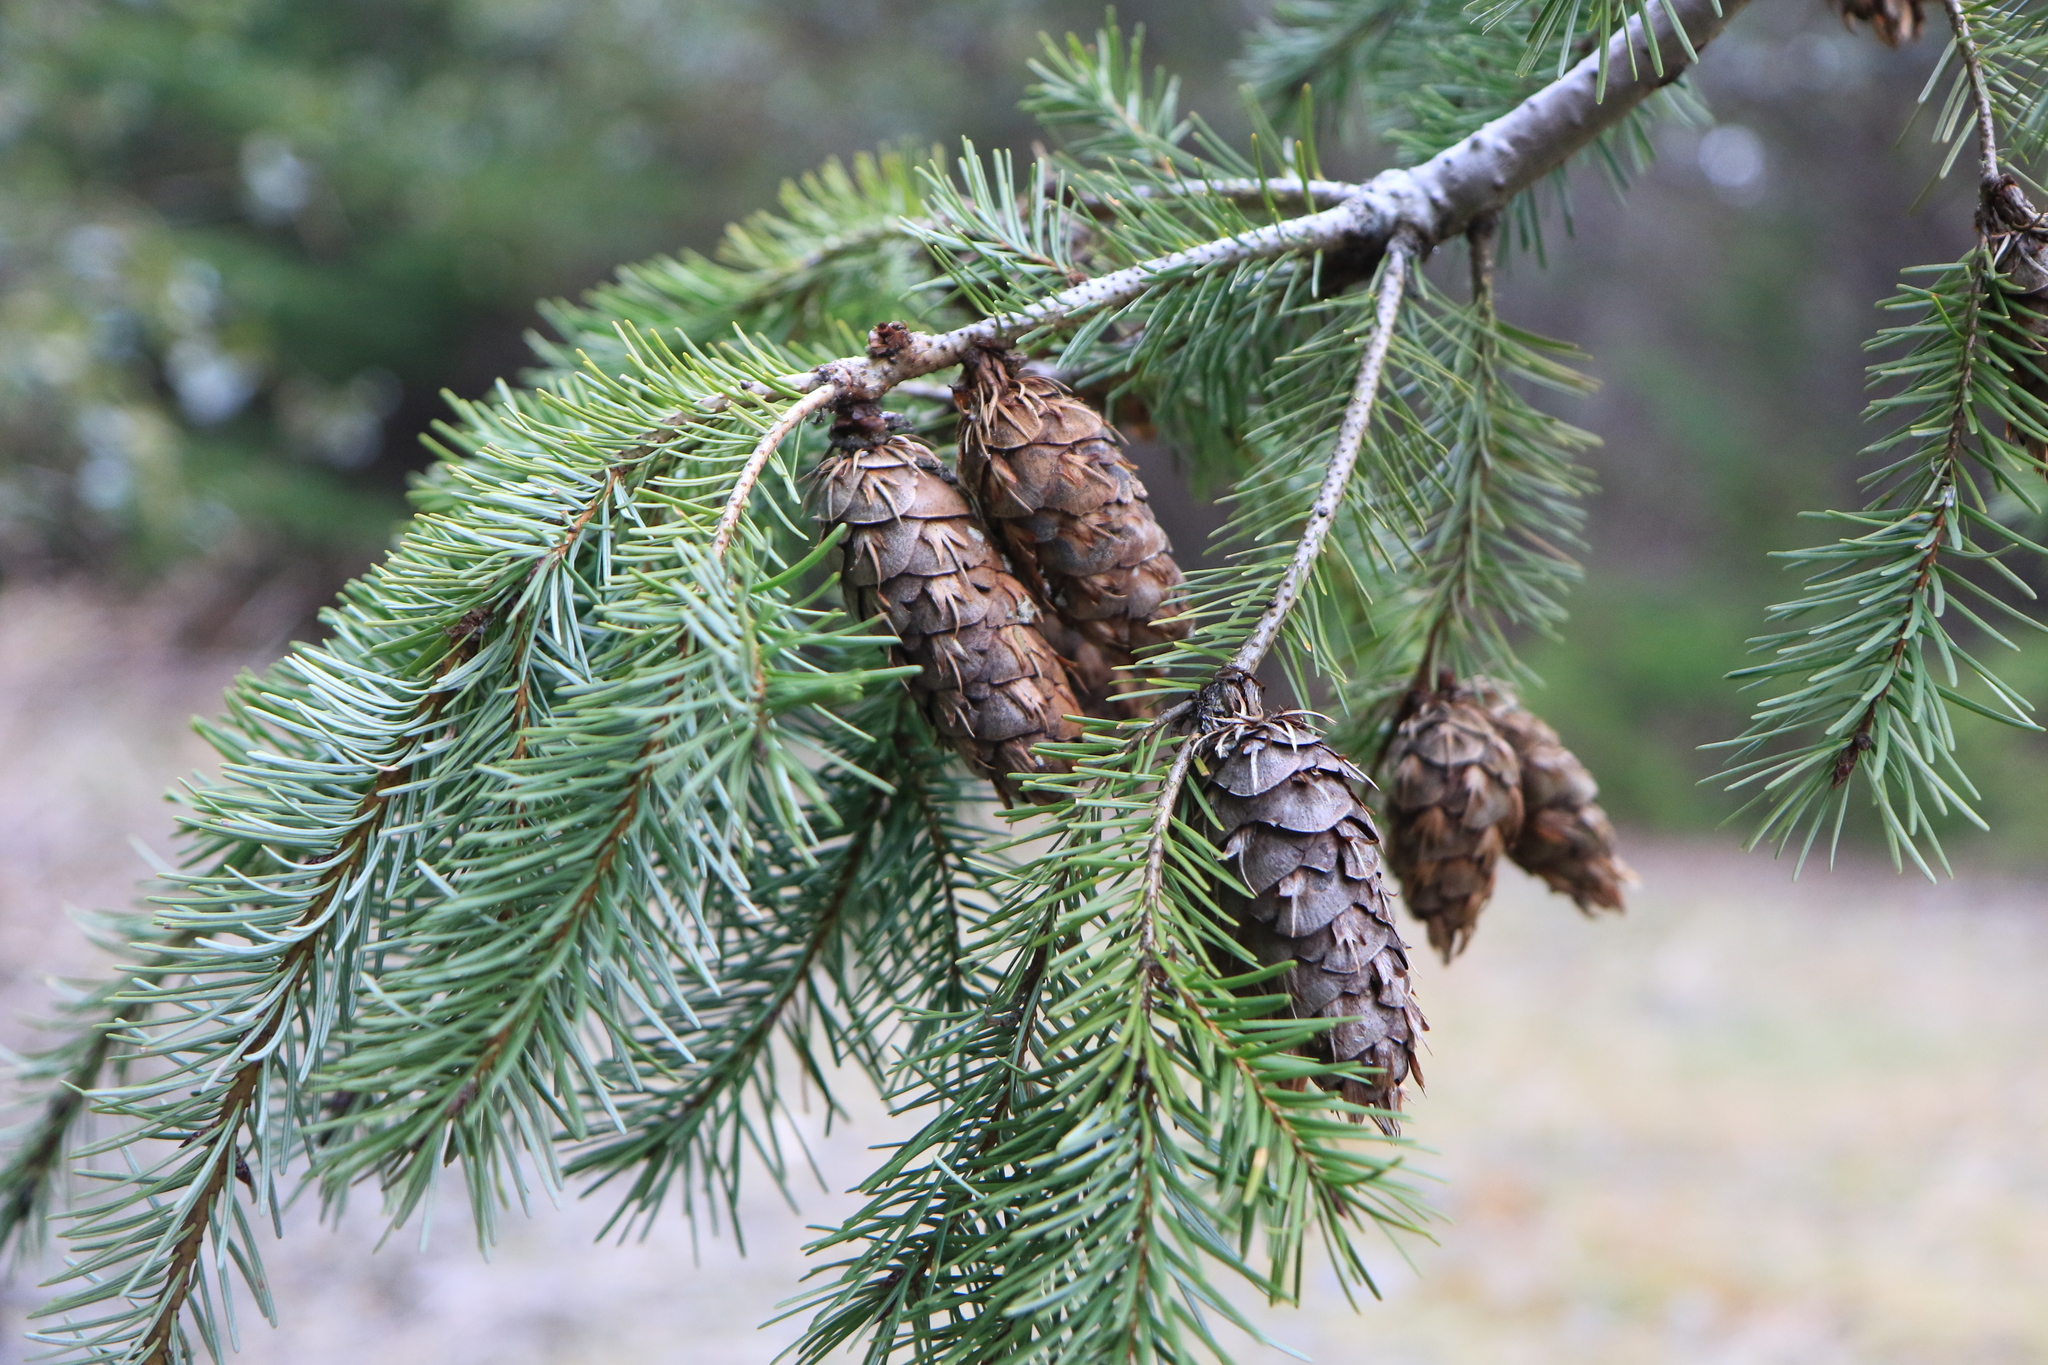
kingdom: Plantae
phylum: Tracheophyta
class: Pinopsida
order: Pinales
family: Pinaceae
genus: Pseudotsuga
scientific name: Pseudotsuga menziesii
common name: Douglas fir
